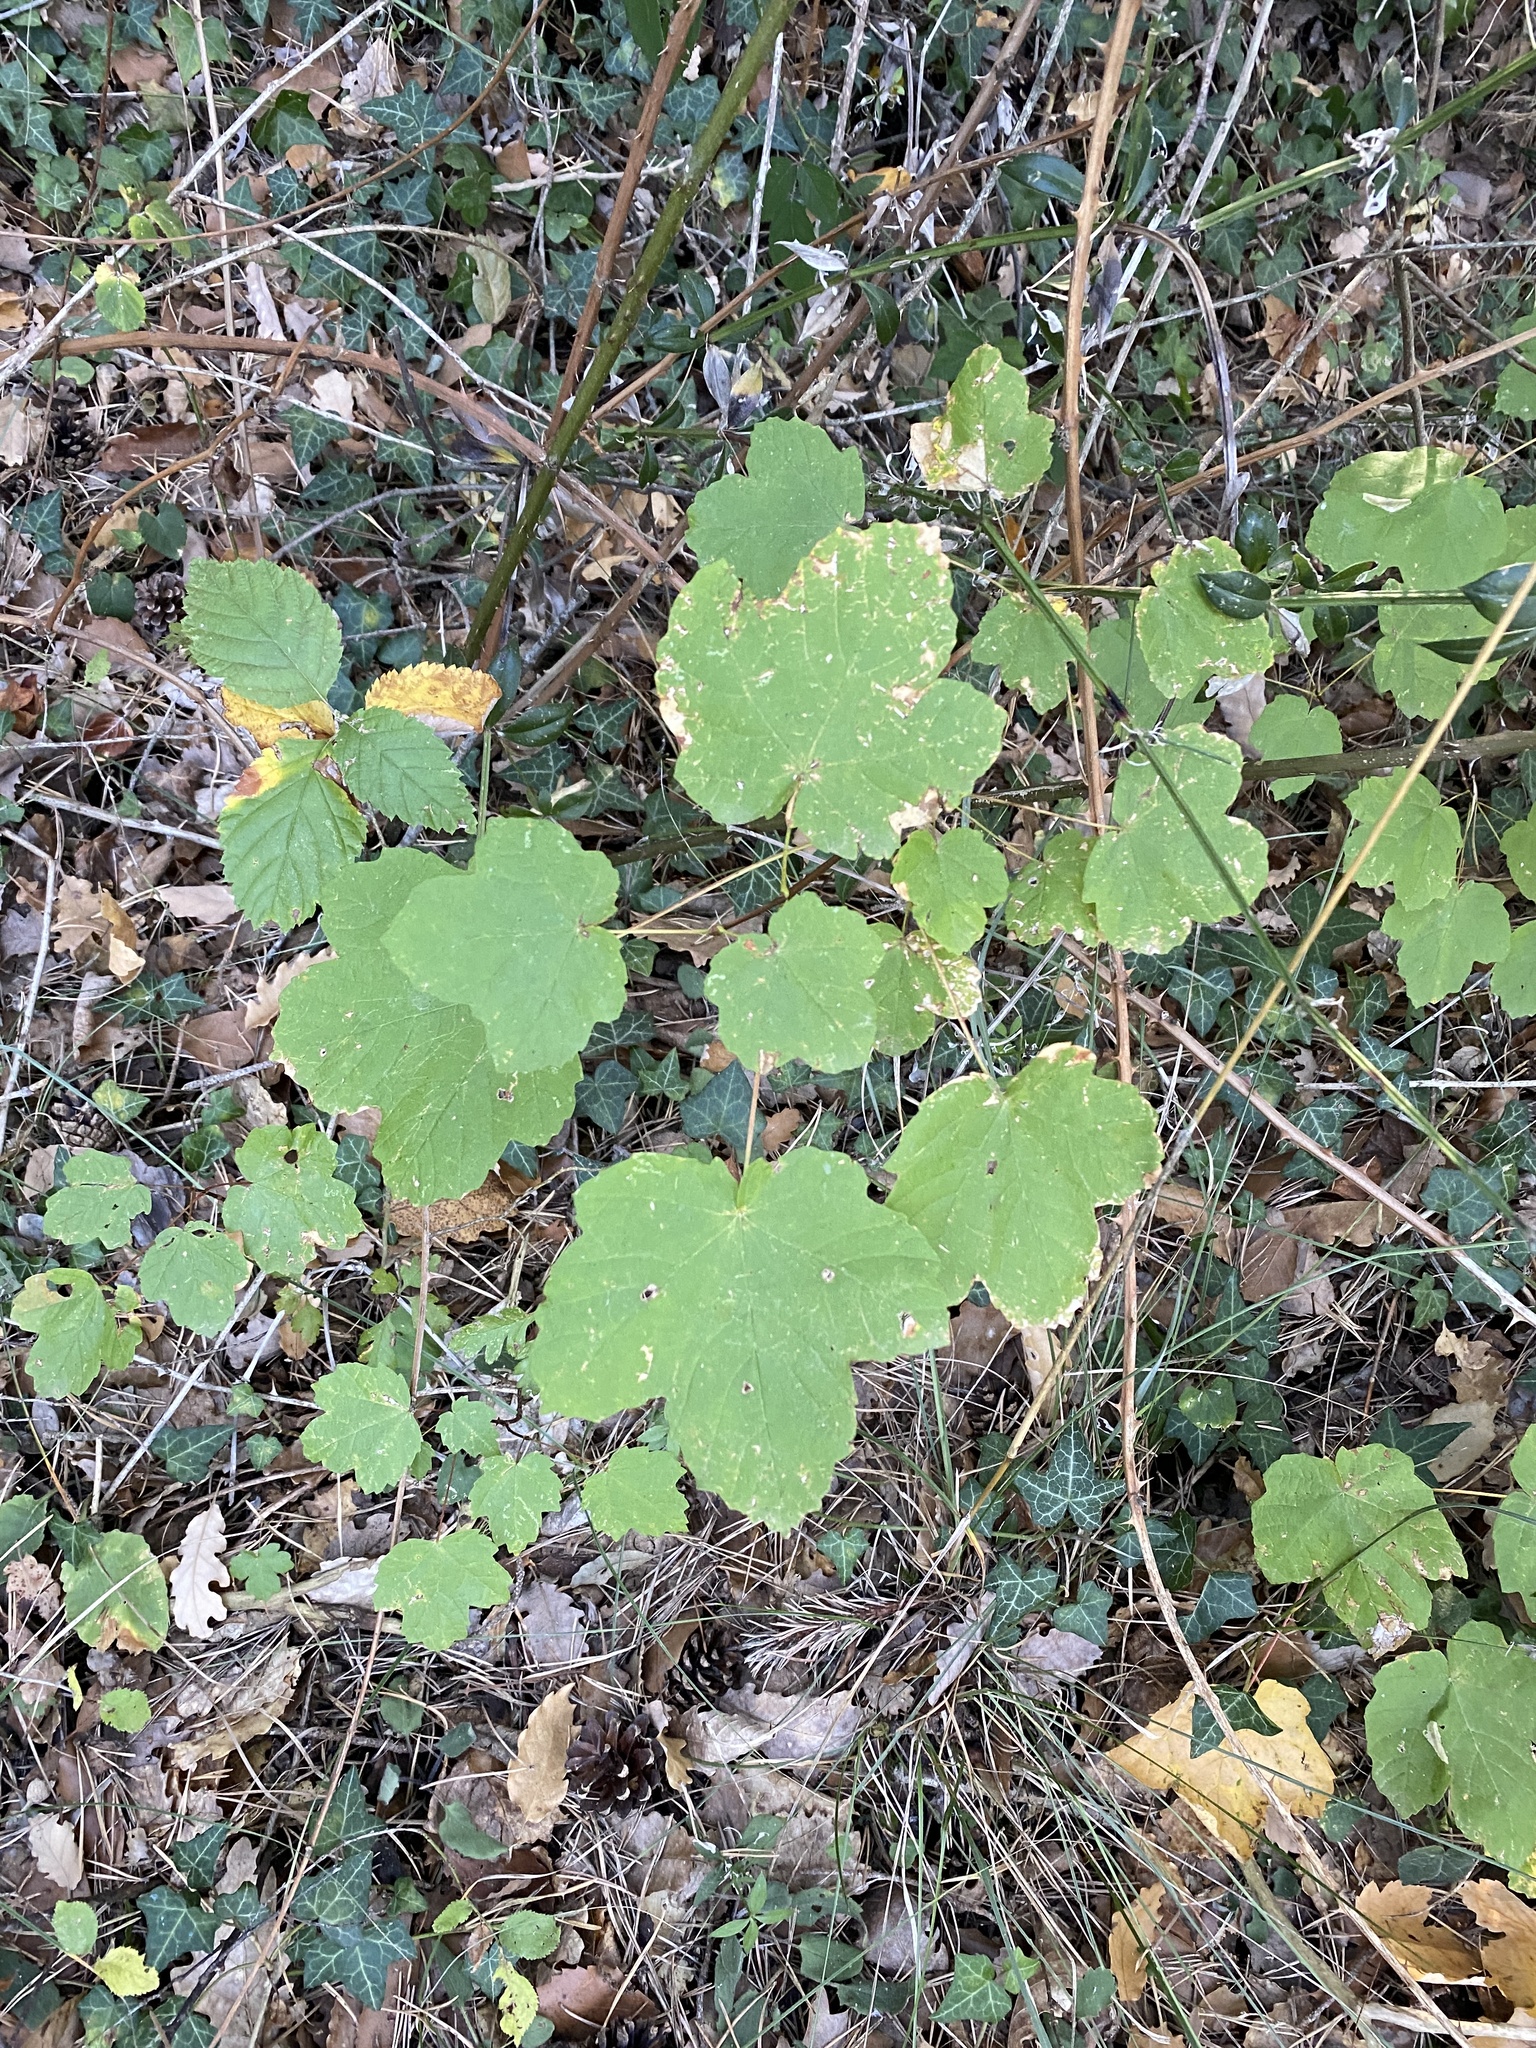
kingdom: Plantae
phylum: Tracheophyta
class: Magnoliopsida
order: Sapindales
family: Sapindaceae
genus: Acer
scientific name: Acer opalus
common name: Italian maple
